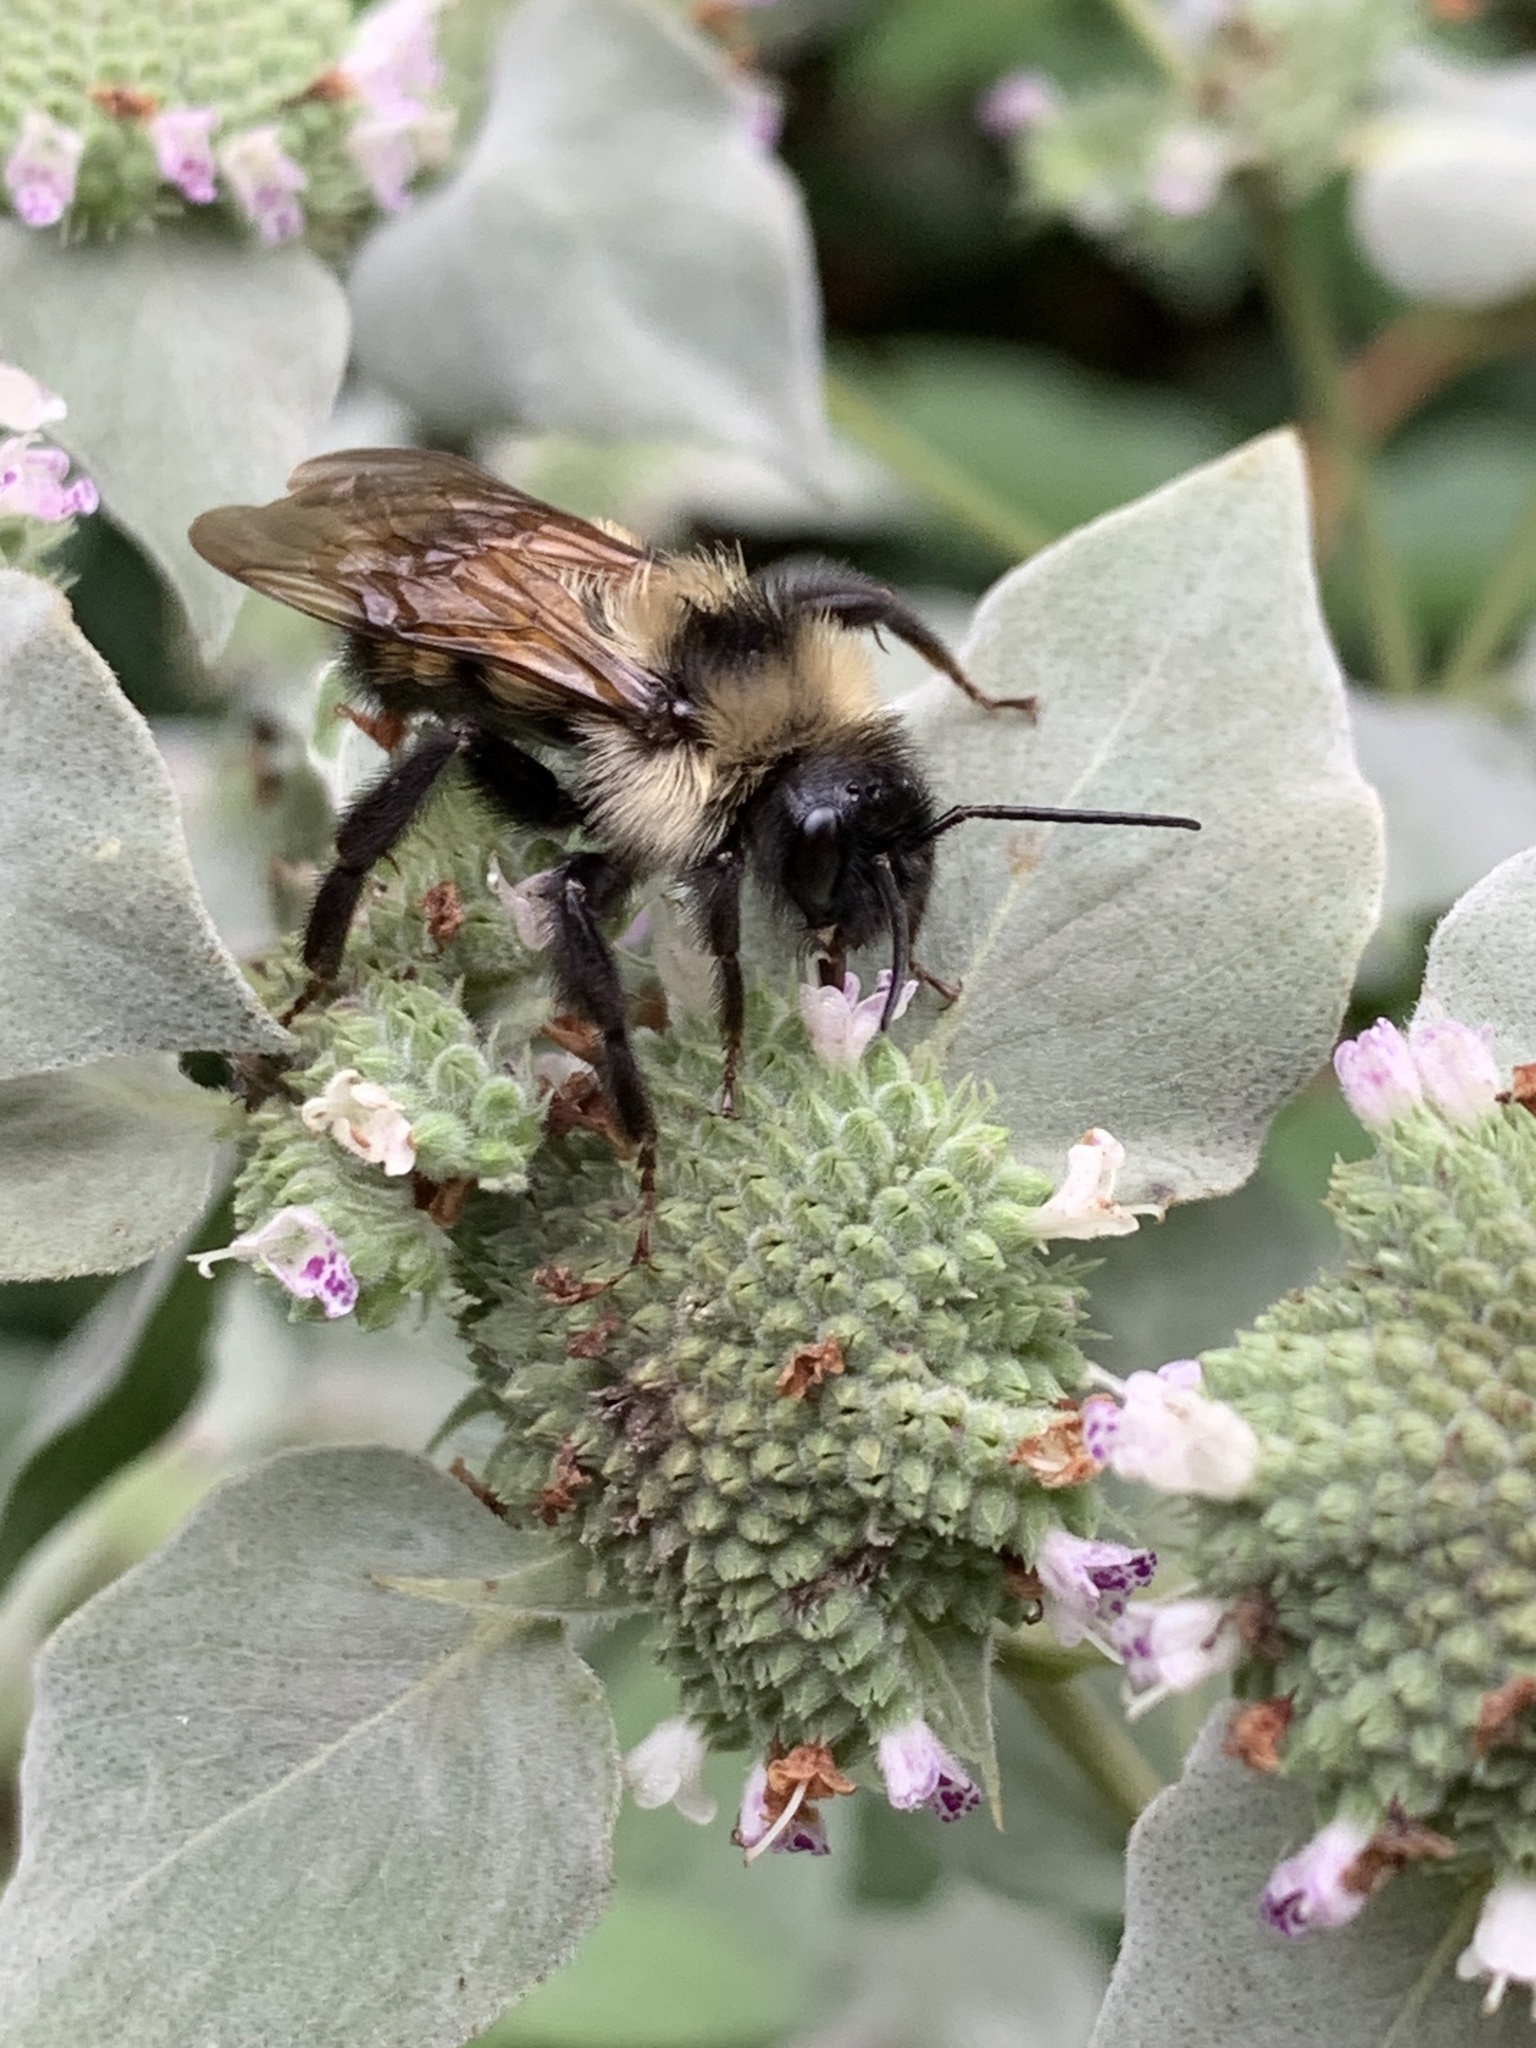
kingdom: Animalia
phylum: Arthropoda
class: Insecta
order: Hymenoptera
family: Apidae
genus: Bombus
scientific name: Bombus citrinus
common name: Lemon cuckoo bumble bee
